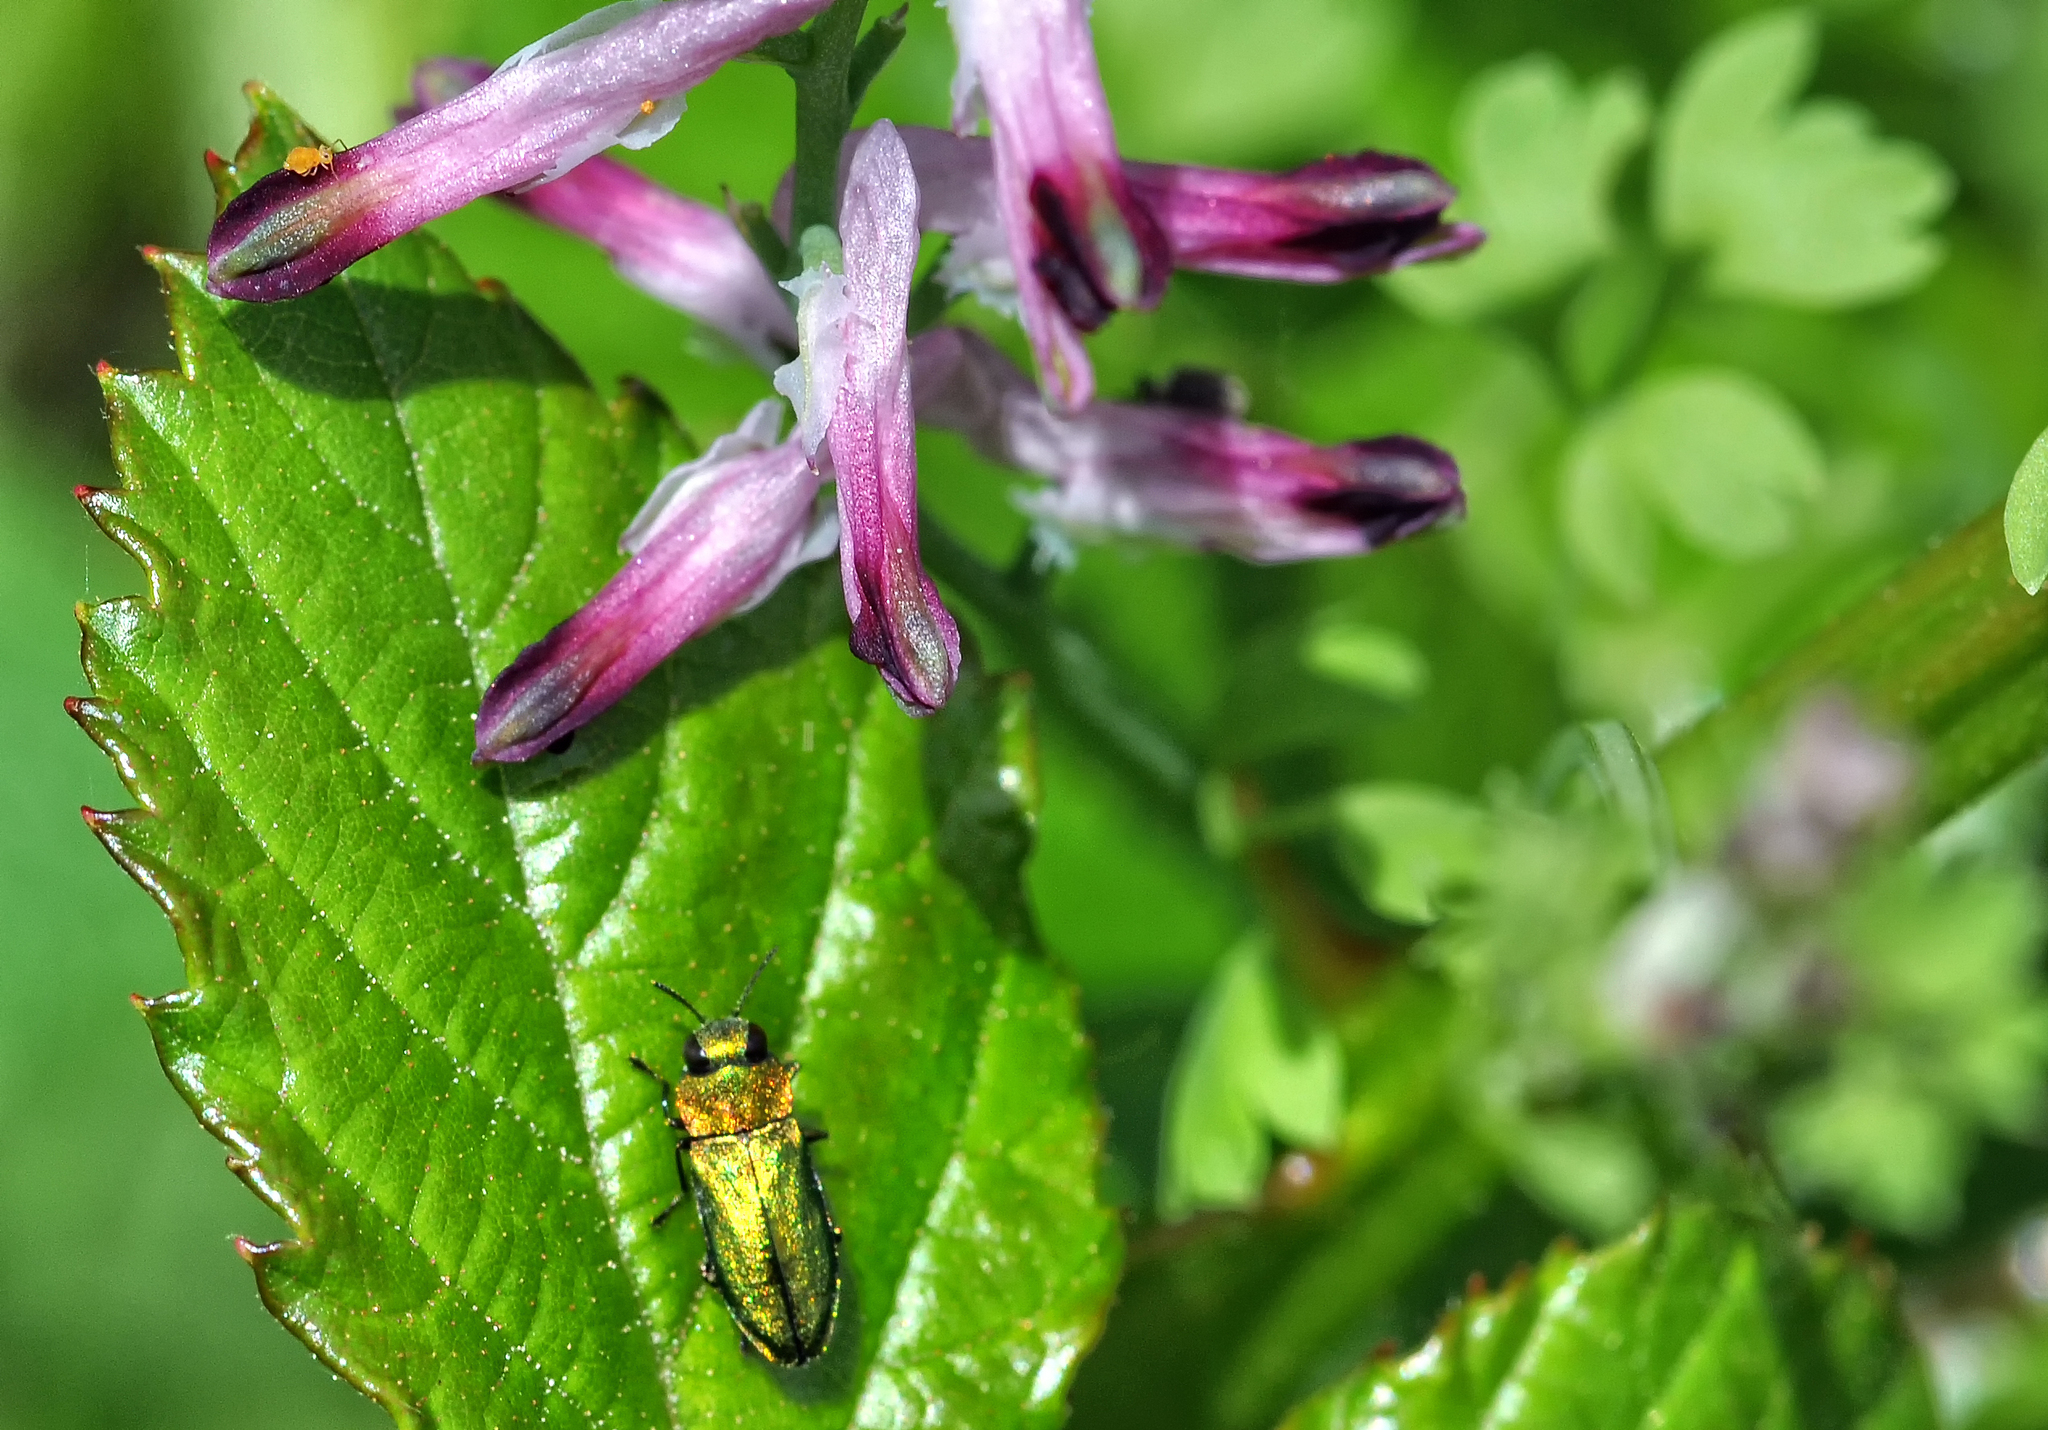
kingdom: Animalia
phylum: Arthropoda
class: Insecta
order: Coleoptera
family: Buprestidae
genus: Anthaxia
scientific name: Anthaxia nitidula
